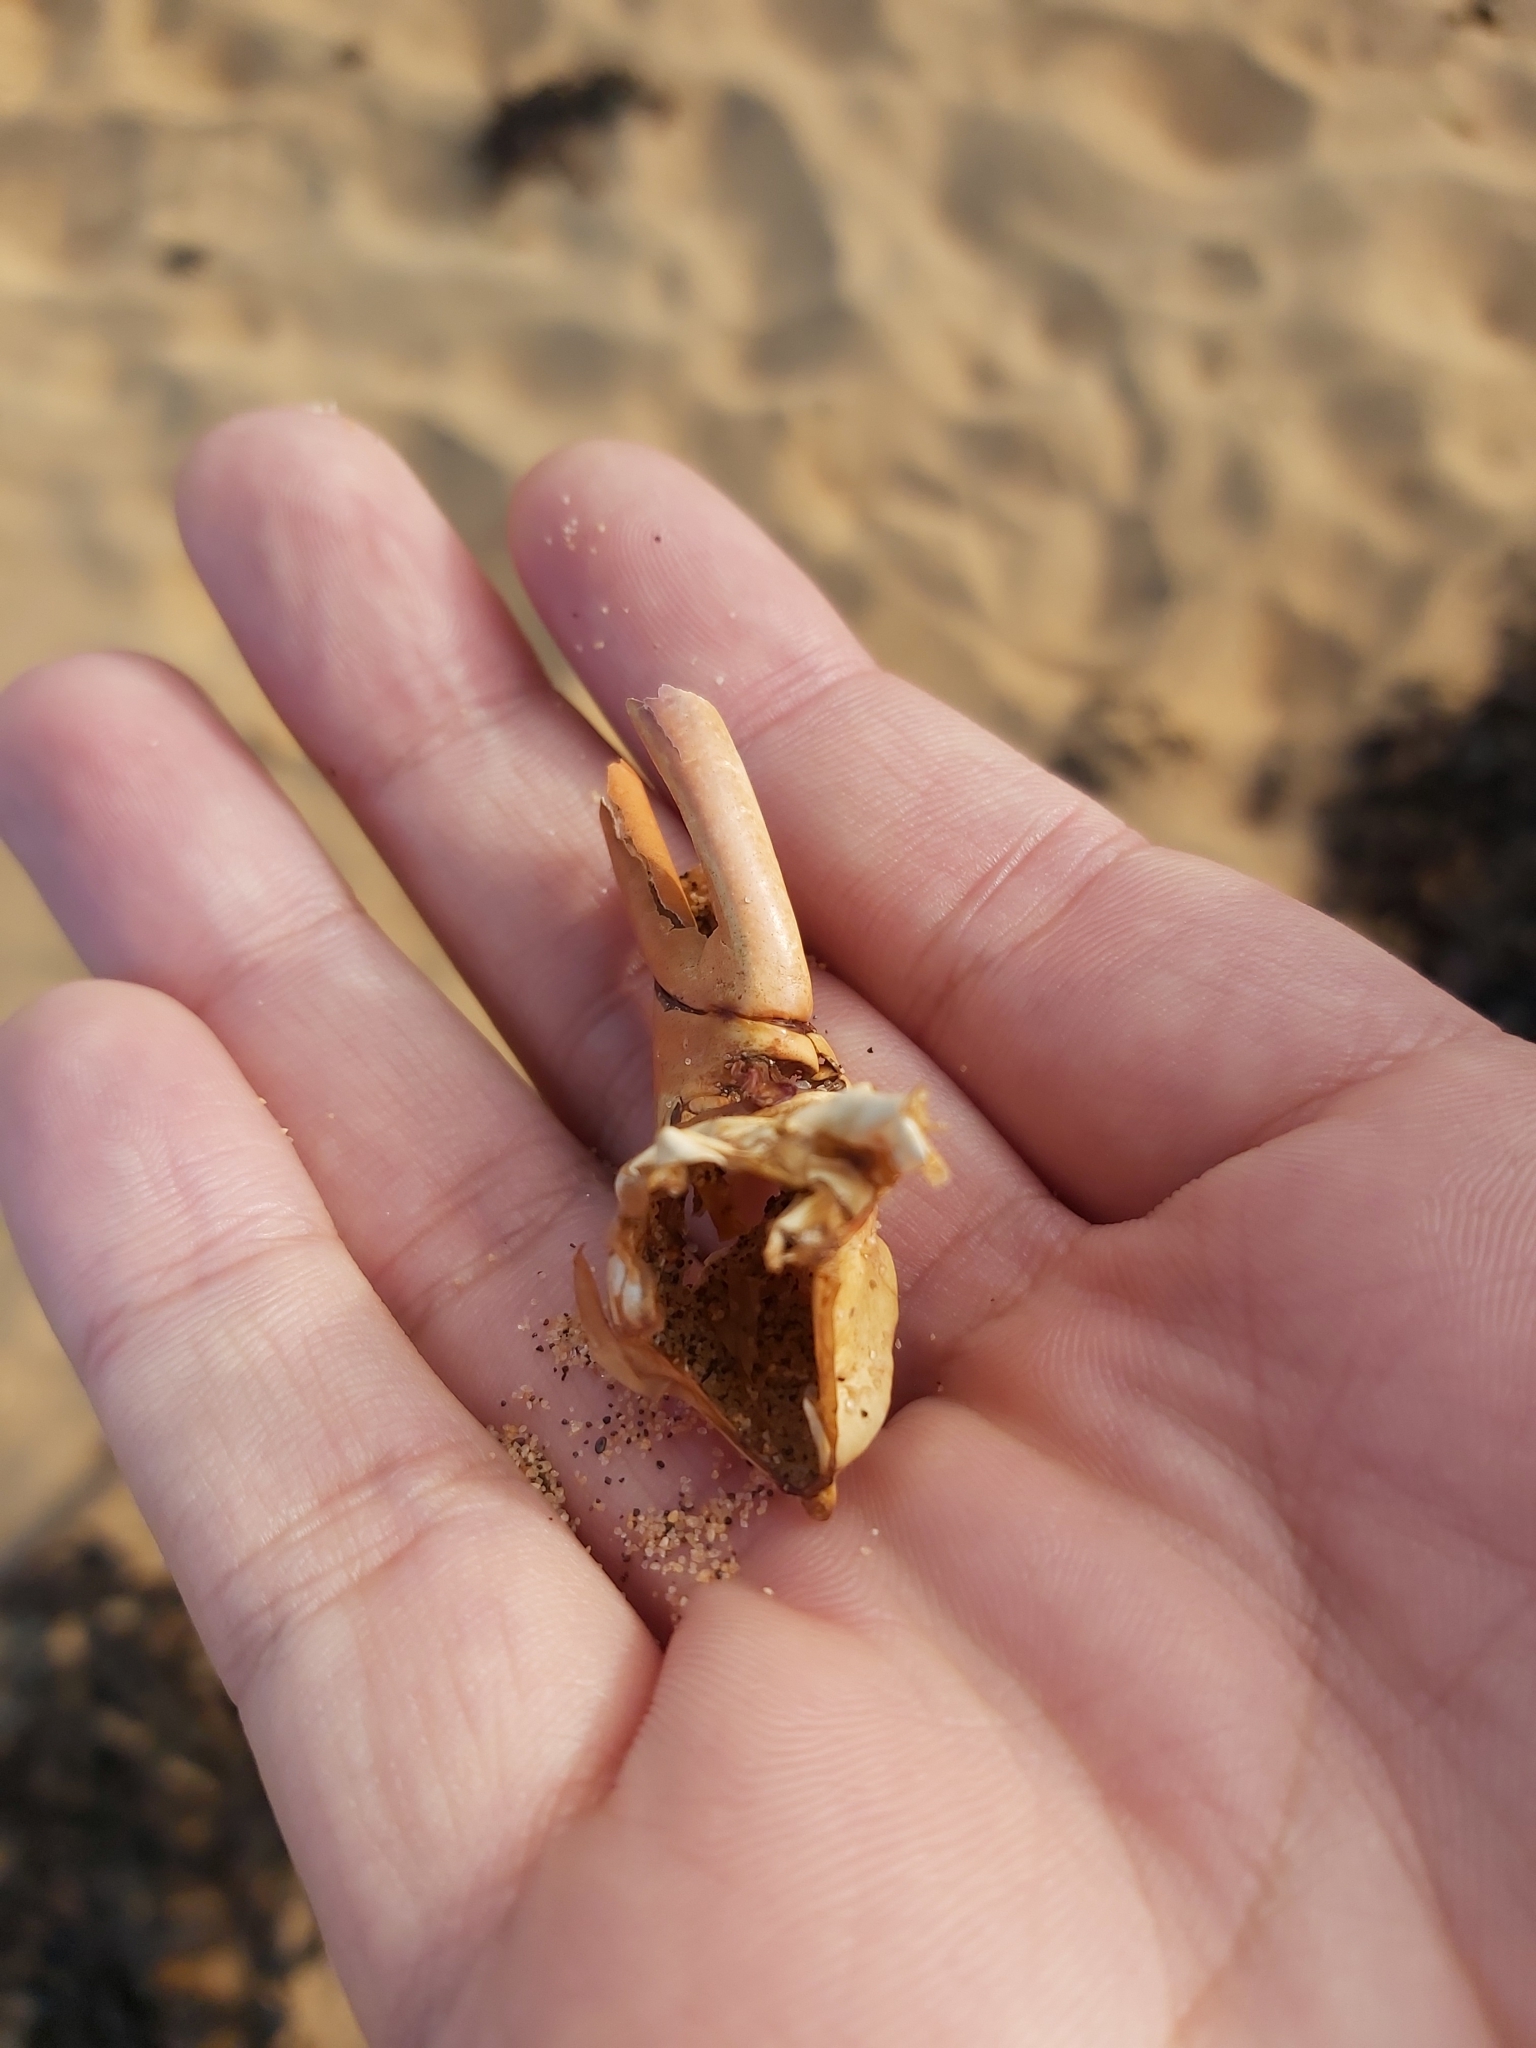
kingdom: Animalia
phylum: Arthropoda
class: Malacostraca
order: Decapoda
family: Palinuridae
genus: Sagmariasus
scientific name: Sagmariasus verreauxi
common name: Green rock lobster
